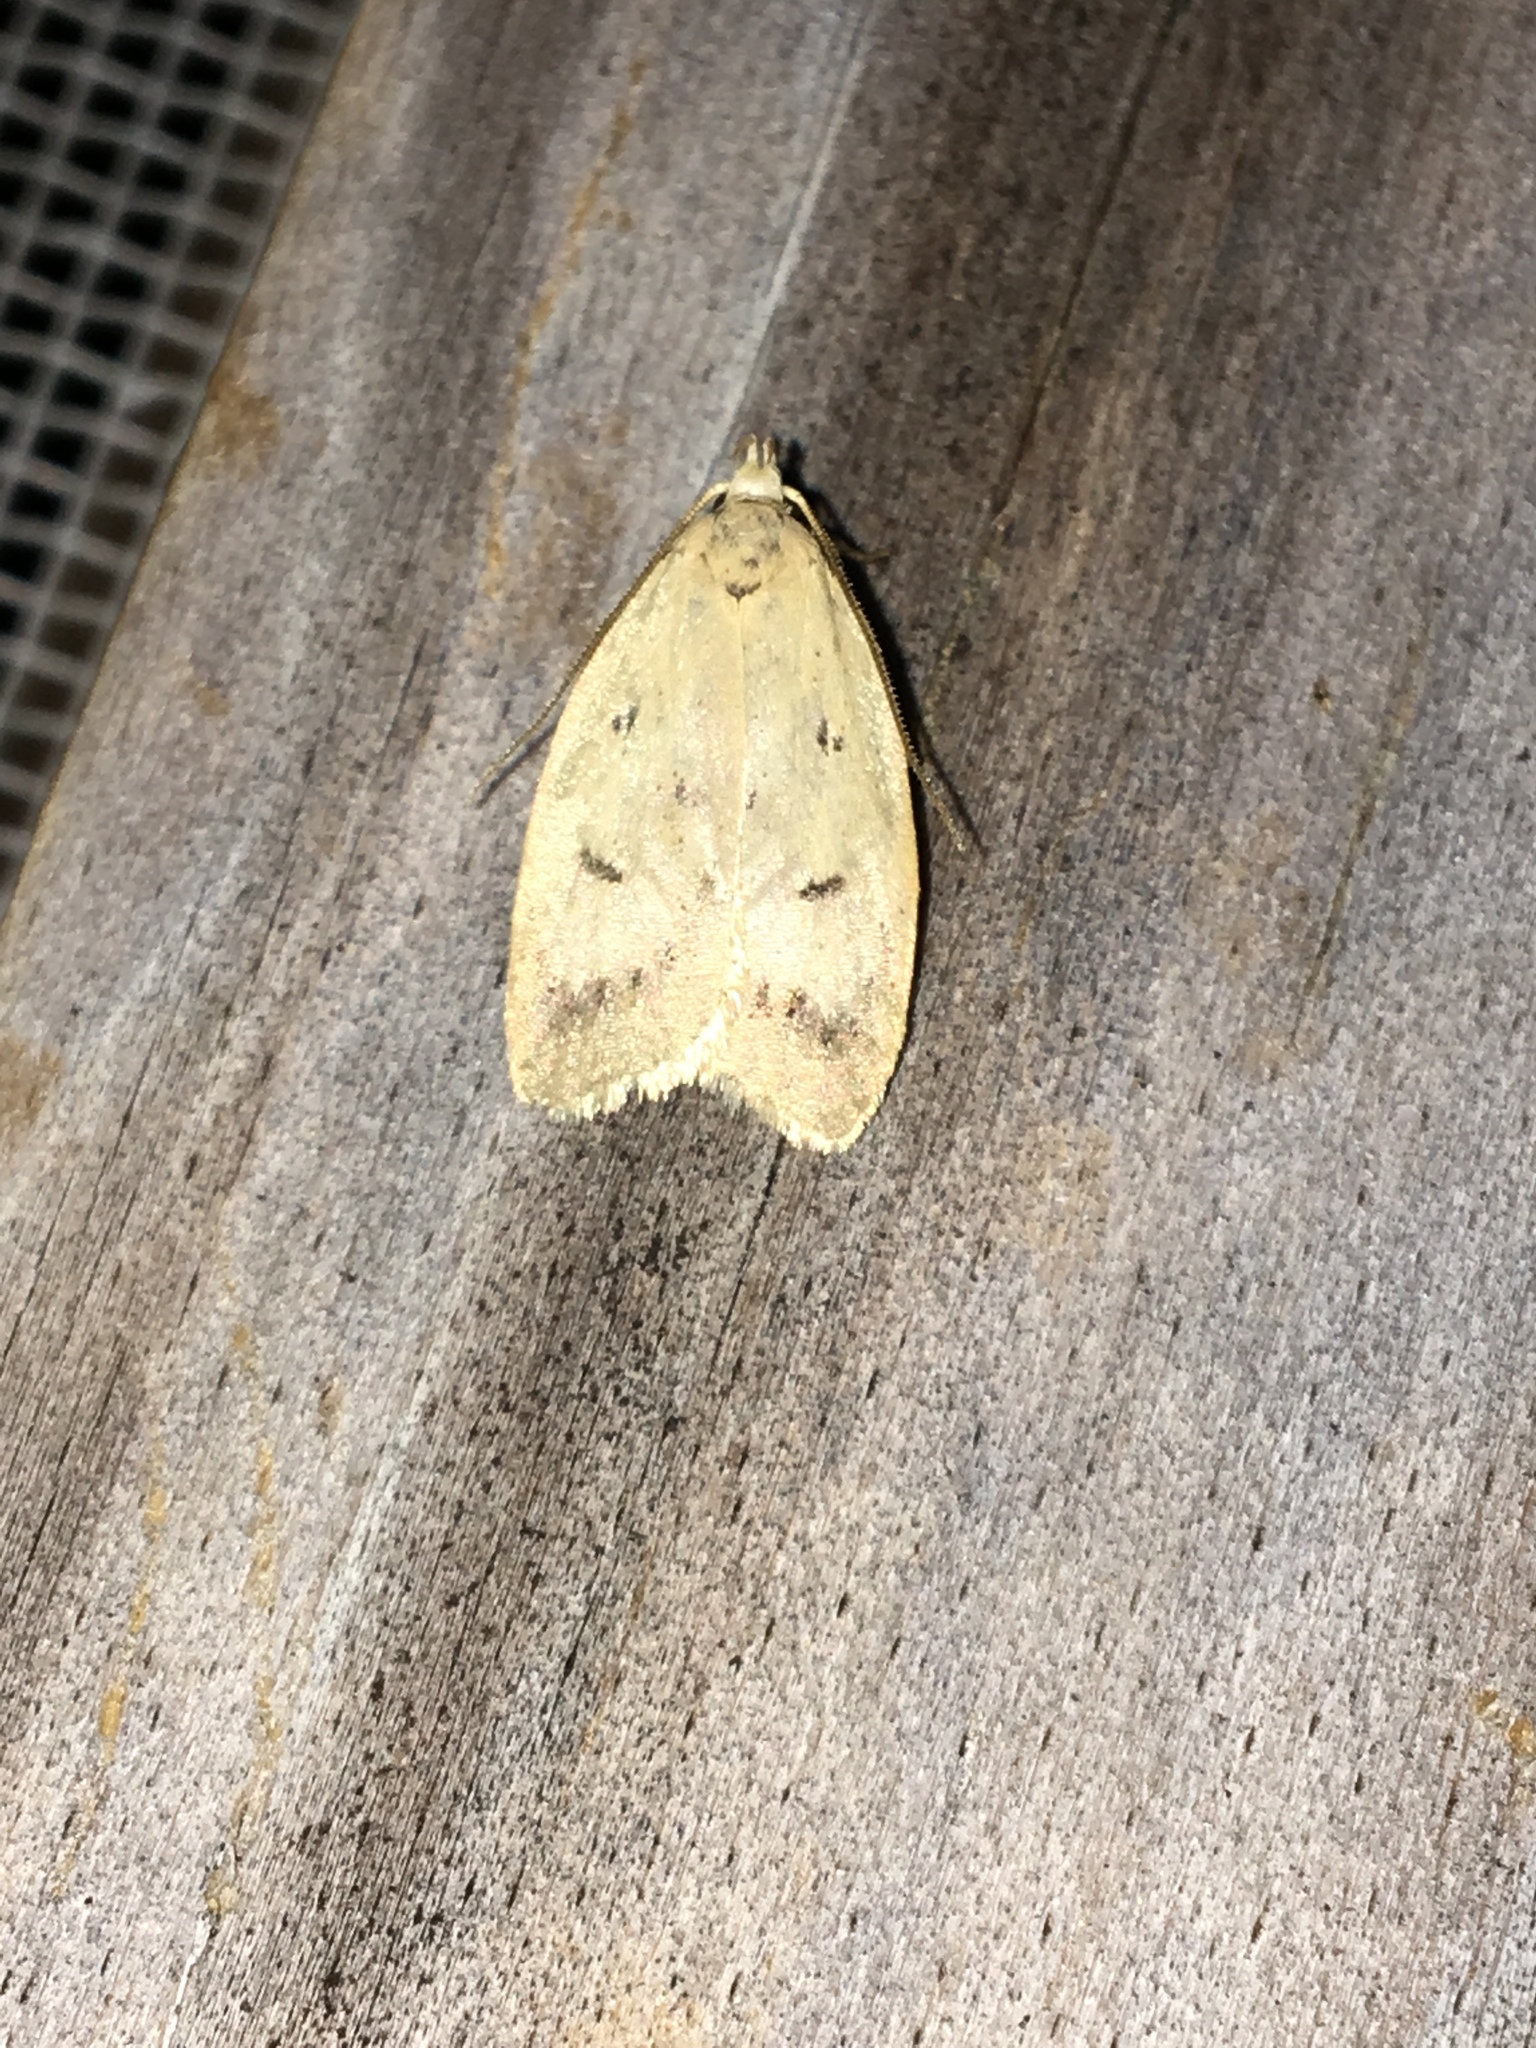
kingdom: Animalia
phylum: Arthropoda
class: Insecta
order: Lepidoptera
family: Peleopodidae
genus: Machimia
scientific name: Machimia tentoriferella
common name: Gold-striped leaftier moth
